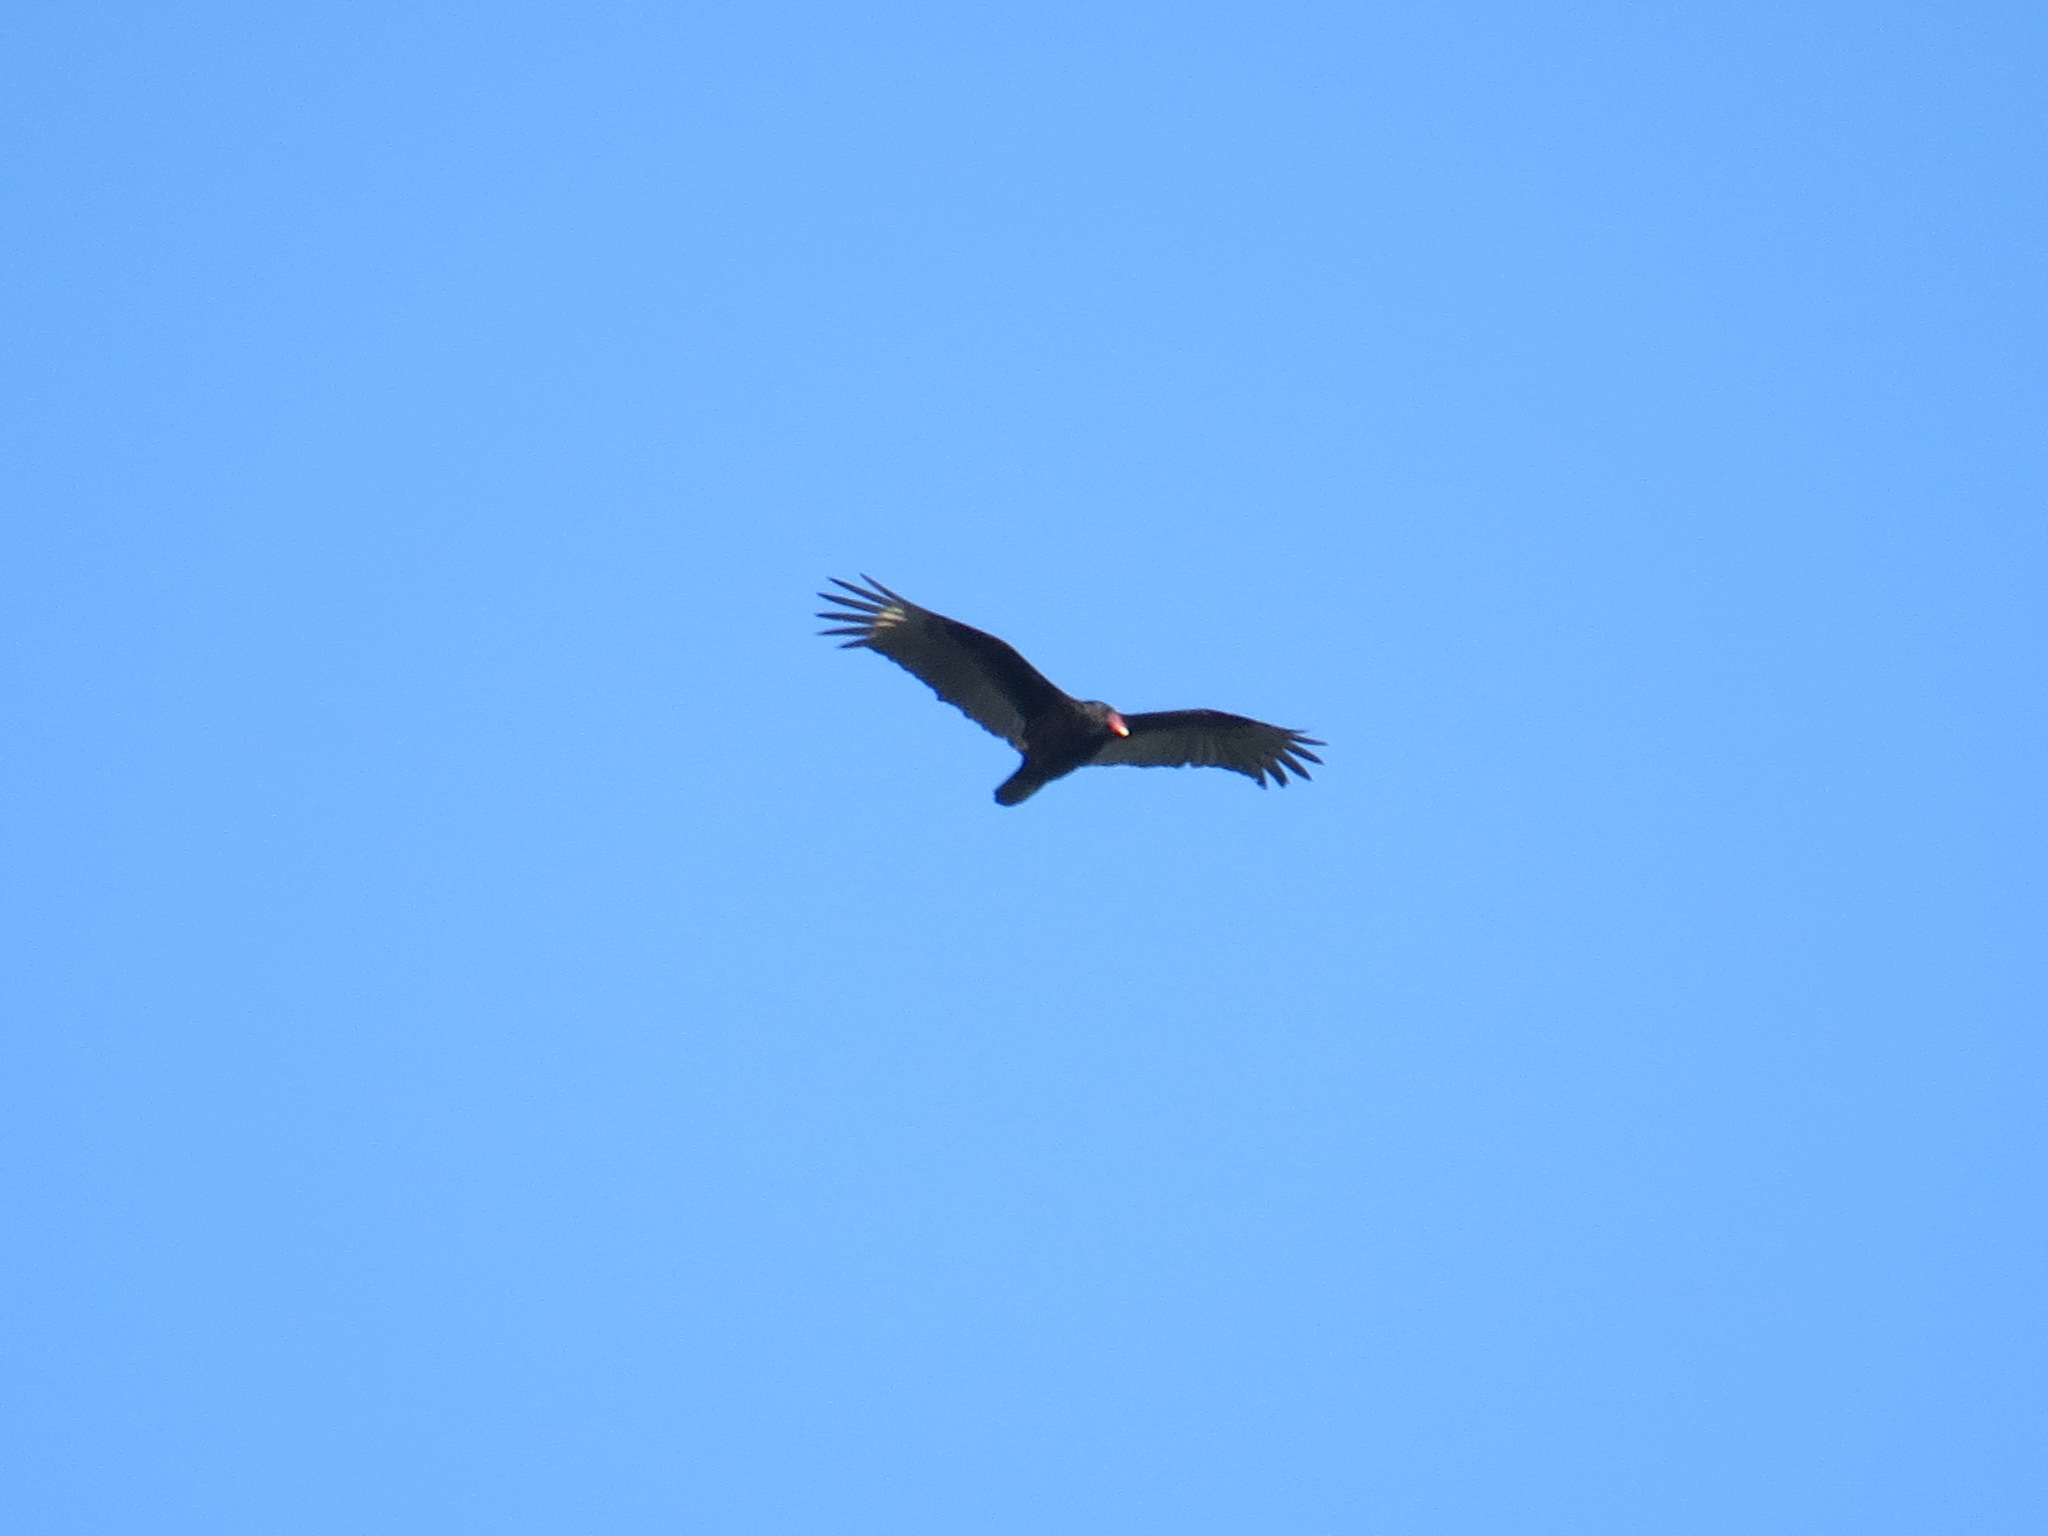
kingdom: Animalia
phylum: Chordata
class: Aves
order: Accipitriformes
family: Cathartidae
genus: Cathartes
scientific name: Cathartes aura
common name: Turkey vulture
